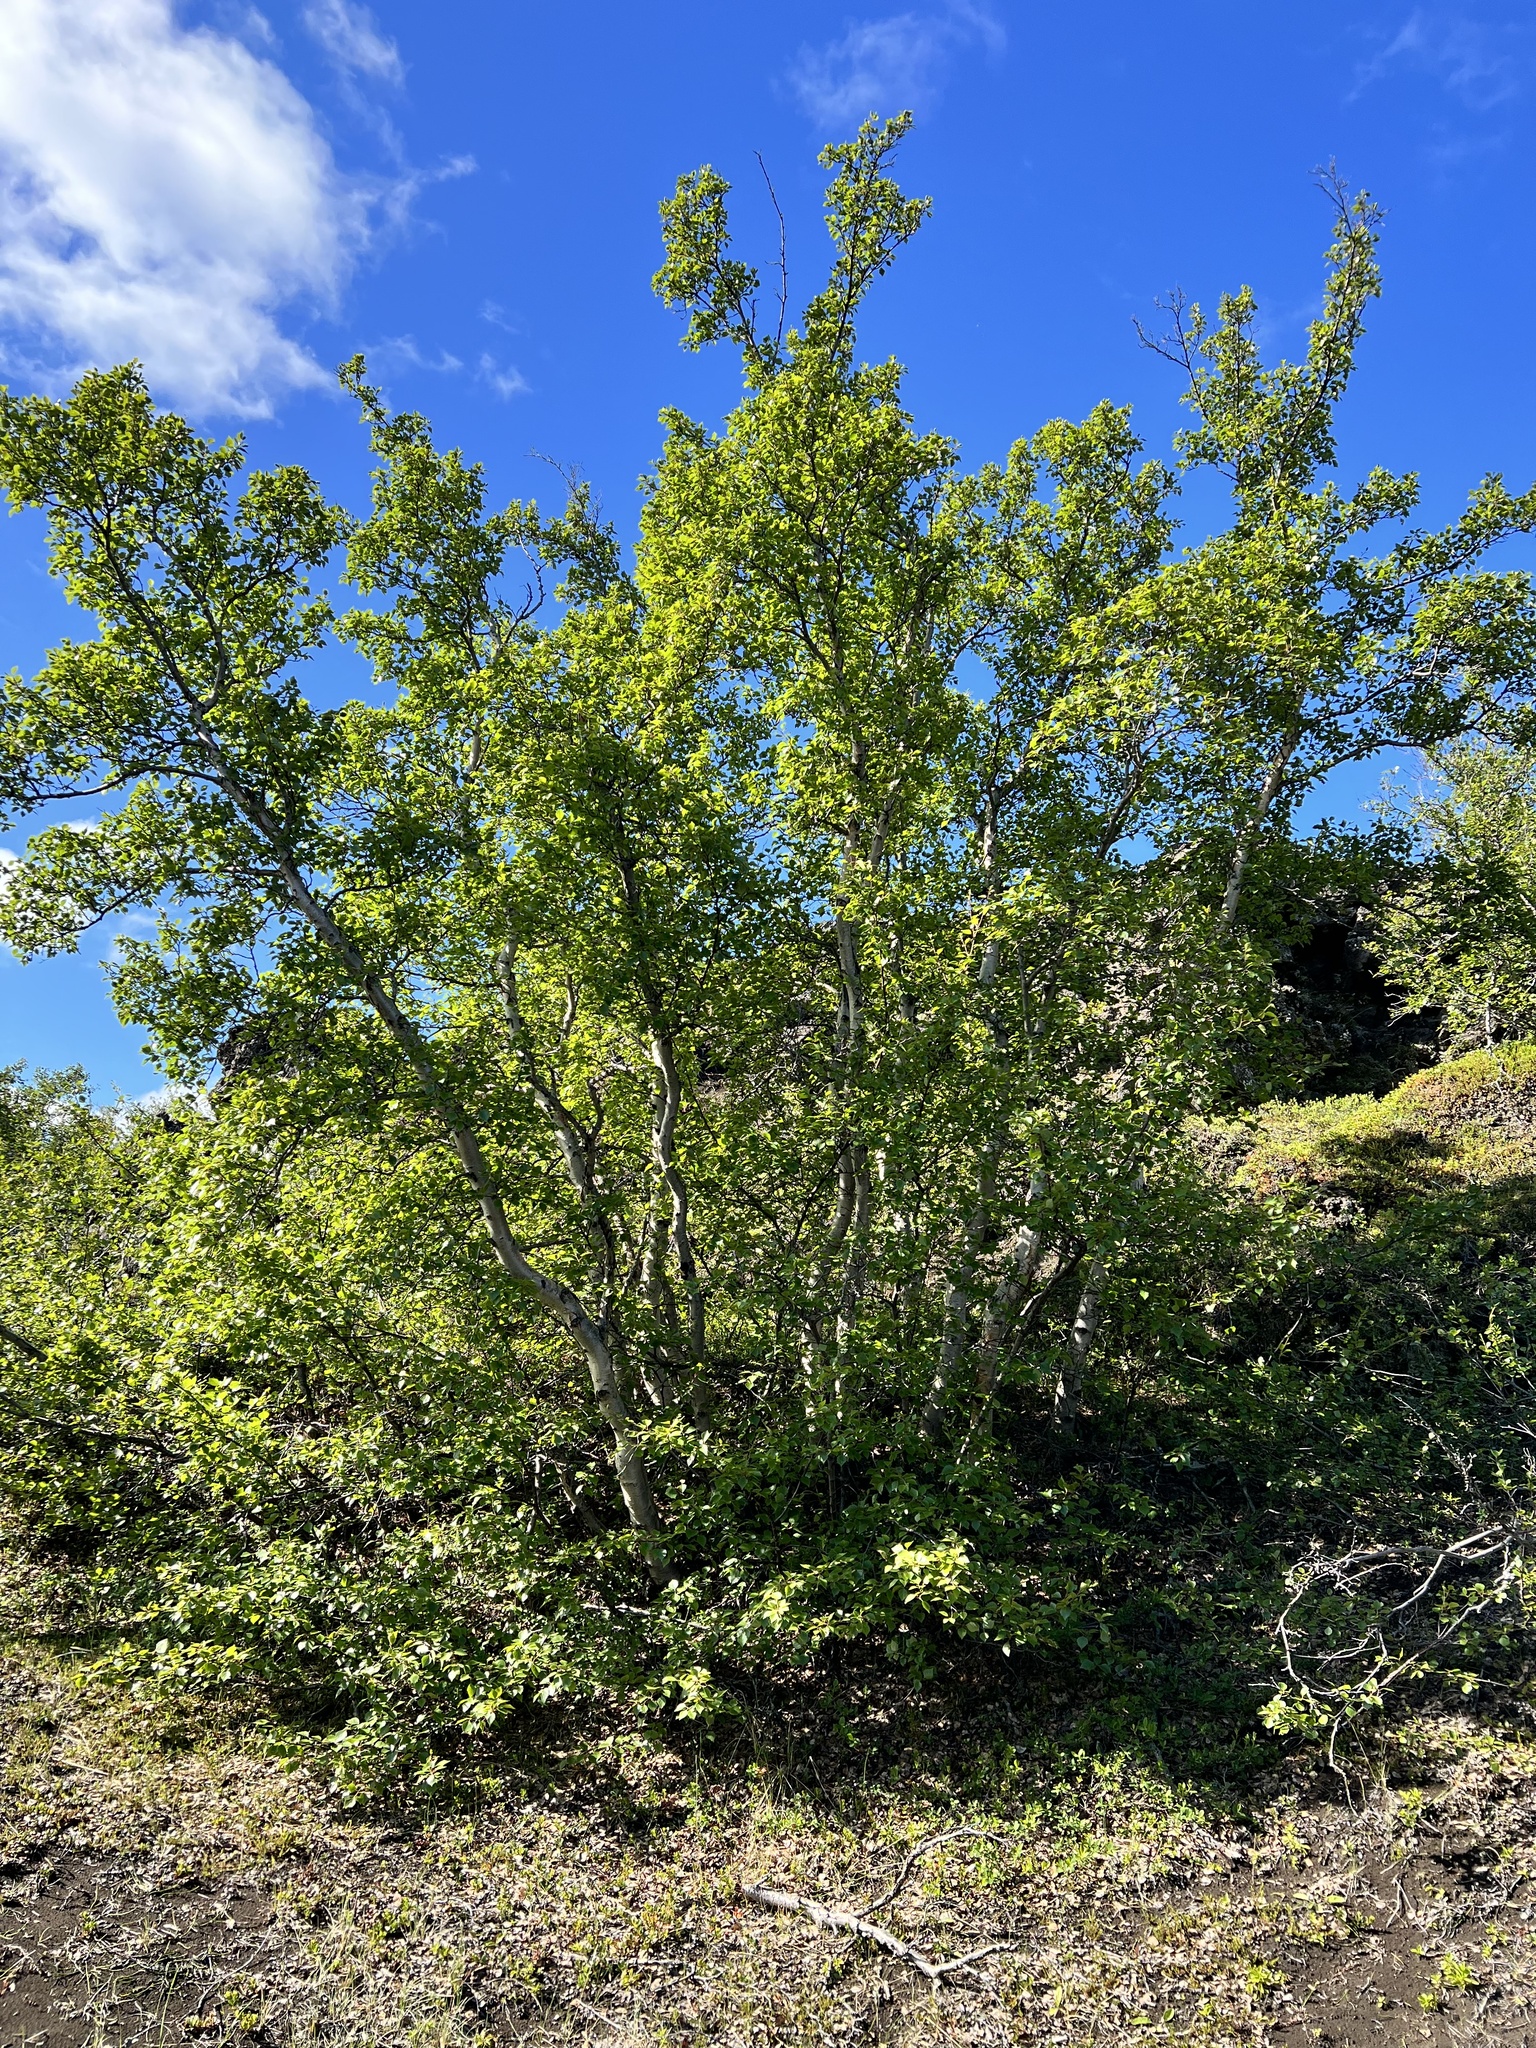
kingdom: Plantae
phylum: Tracheophyta
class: Magnoliopsida
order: Fagales
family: Betulaceae
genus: Betula
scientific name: Betula pubescens
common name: Downy birch
